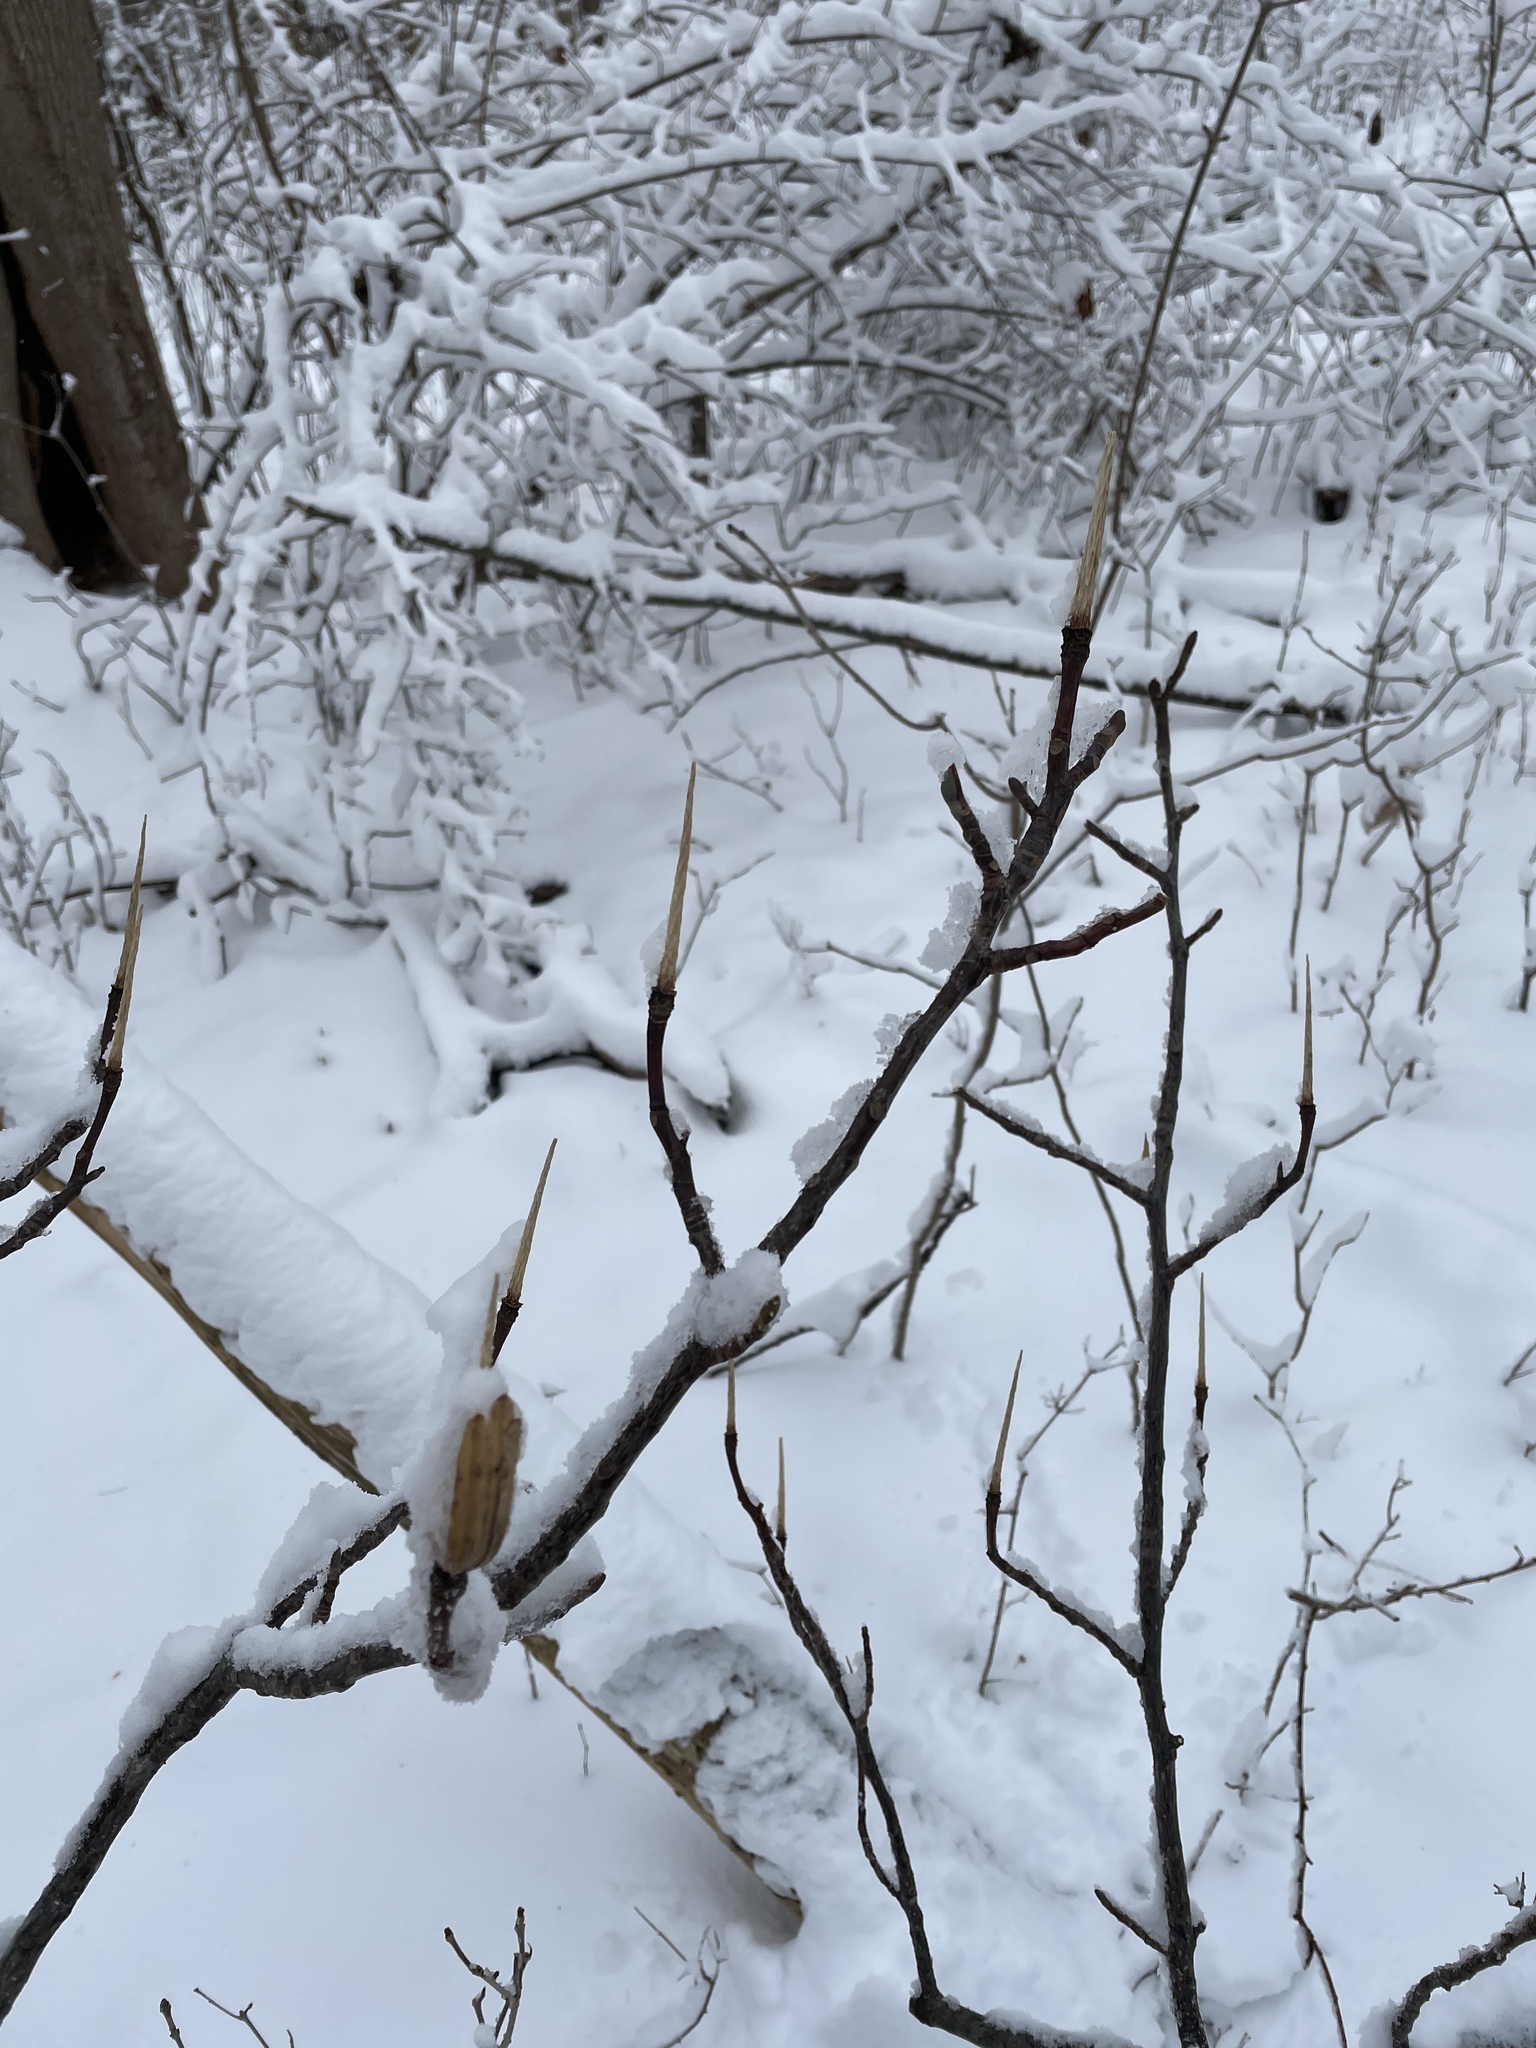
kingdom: Plantae
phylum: Tracheophyta
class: Magnoliopsida
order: Magnoliales
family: Magnoliaceae
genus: Liriodendron
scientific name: Liriodendron tulipifera
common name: Tulip tree
